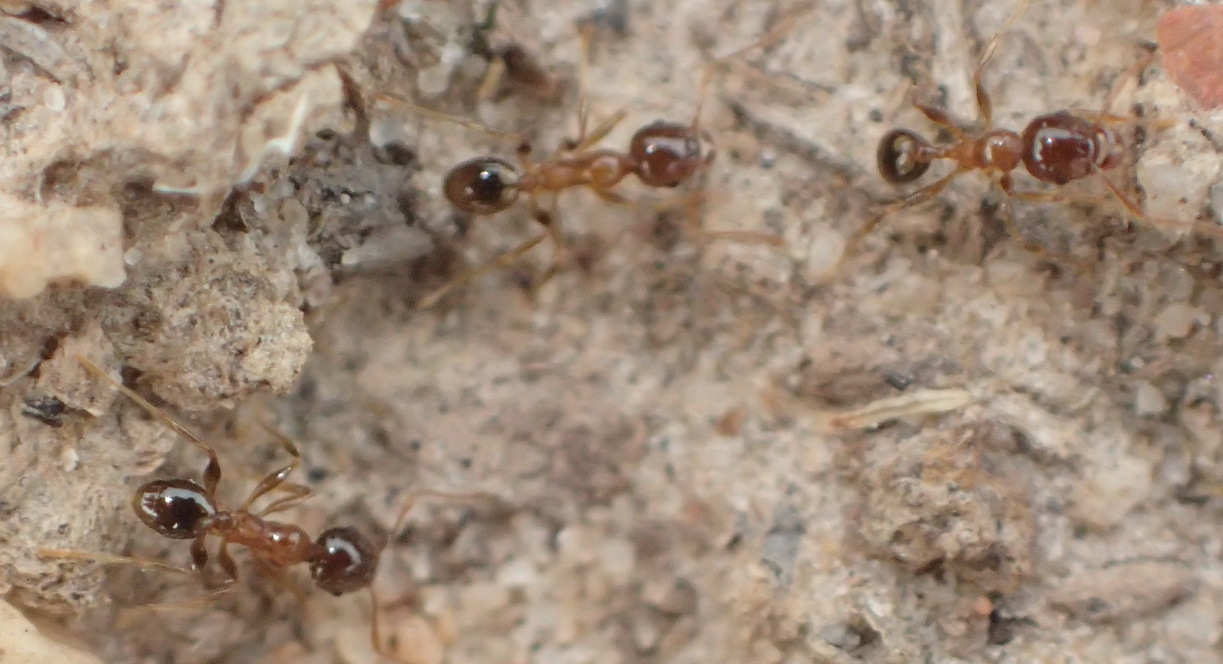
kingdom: Animalia
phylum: Arthropoda
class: Insecta
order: Hymenoptera
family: Formicidae
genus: Pheidole
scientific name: Pheidole megacephala
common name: Bigheaded ant
